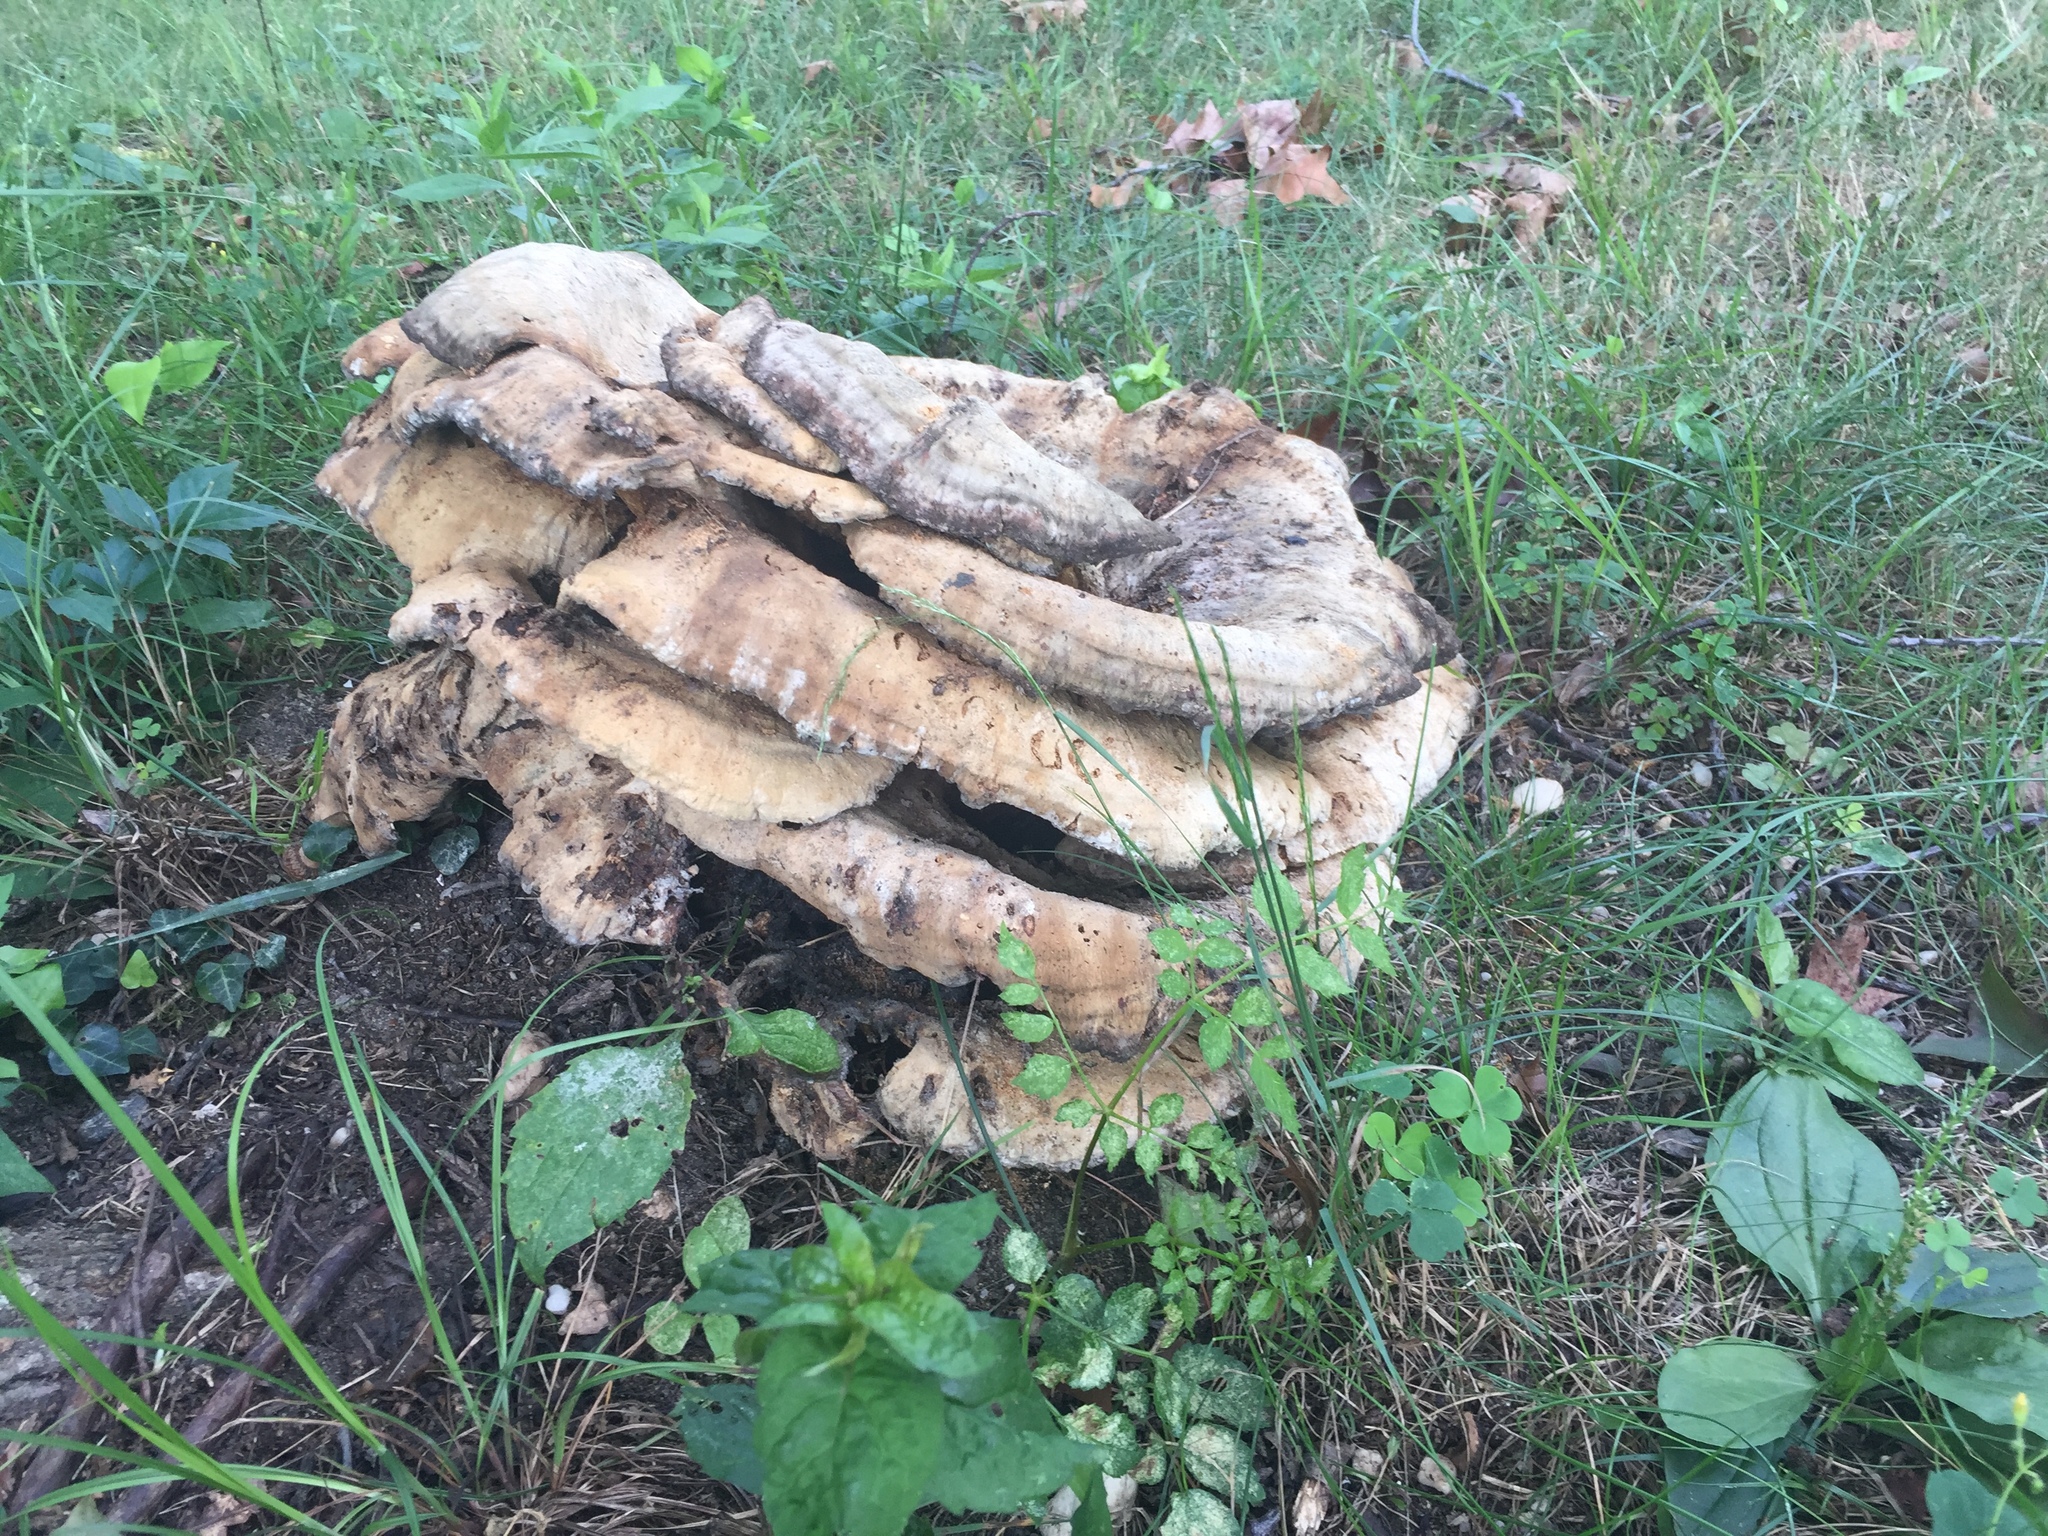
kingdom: Fungi
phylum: Basidiomycota
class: Agaricomycetes
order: Russulales
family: Bondarzewiaceae
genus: Bondarzewia
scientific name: Bondarzewia berkeleyi
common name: Berkeley's polypore
